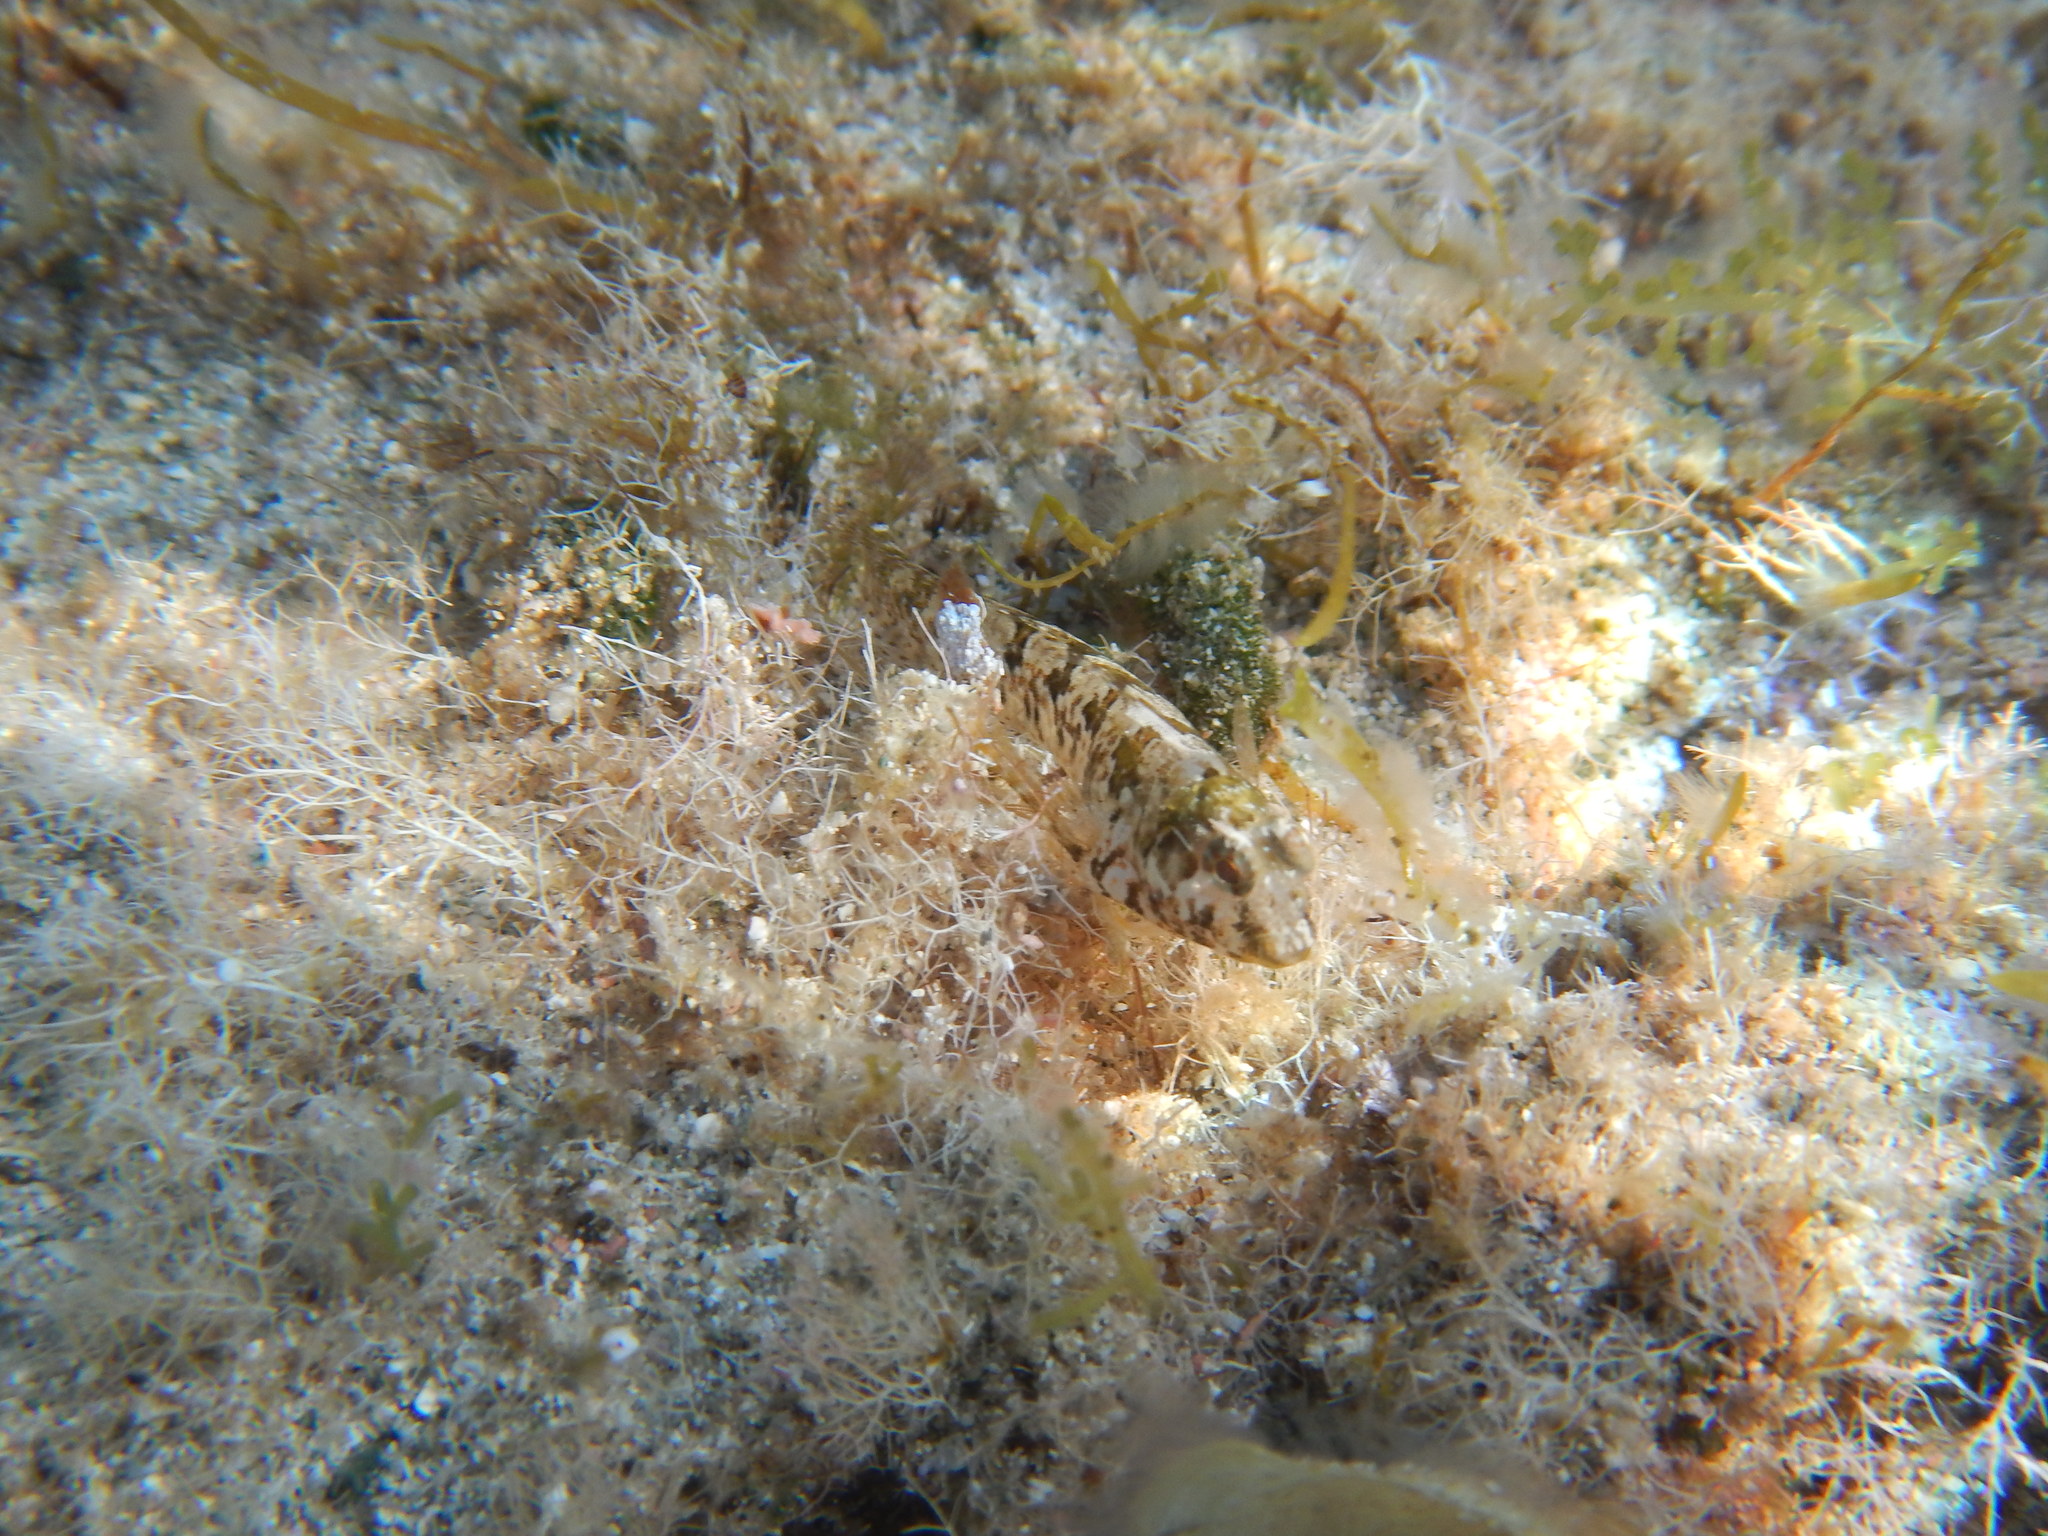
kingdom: Animalia
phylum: Chordata
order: Perciformes
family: Blenniidae
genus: Parablennius
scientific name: Parablennius incognitus
